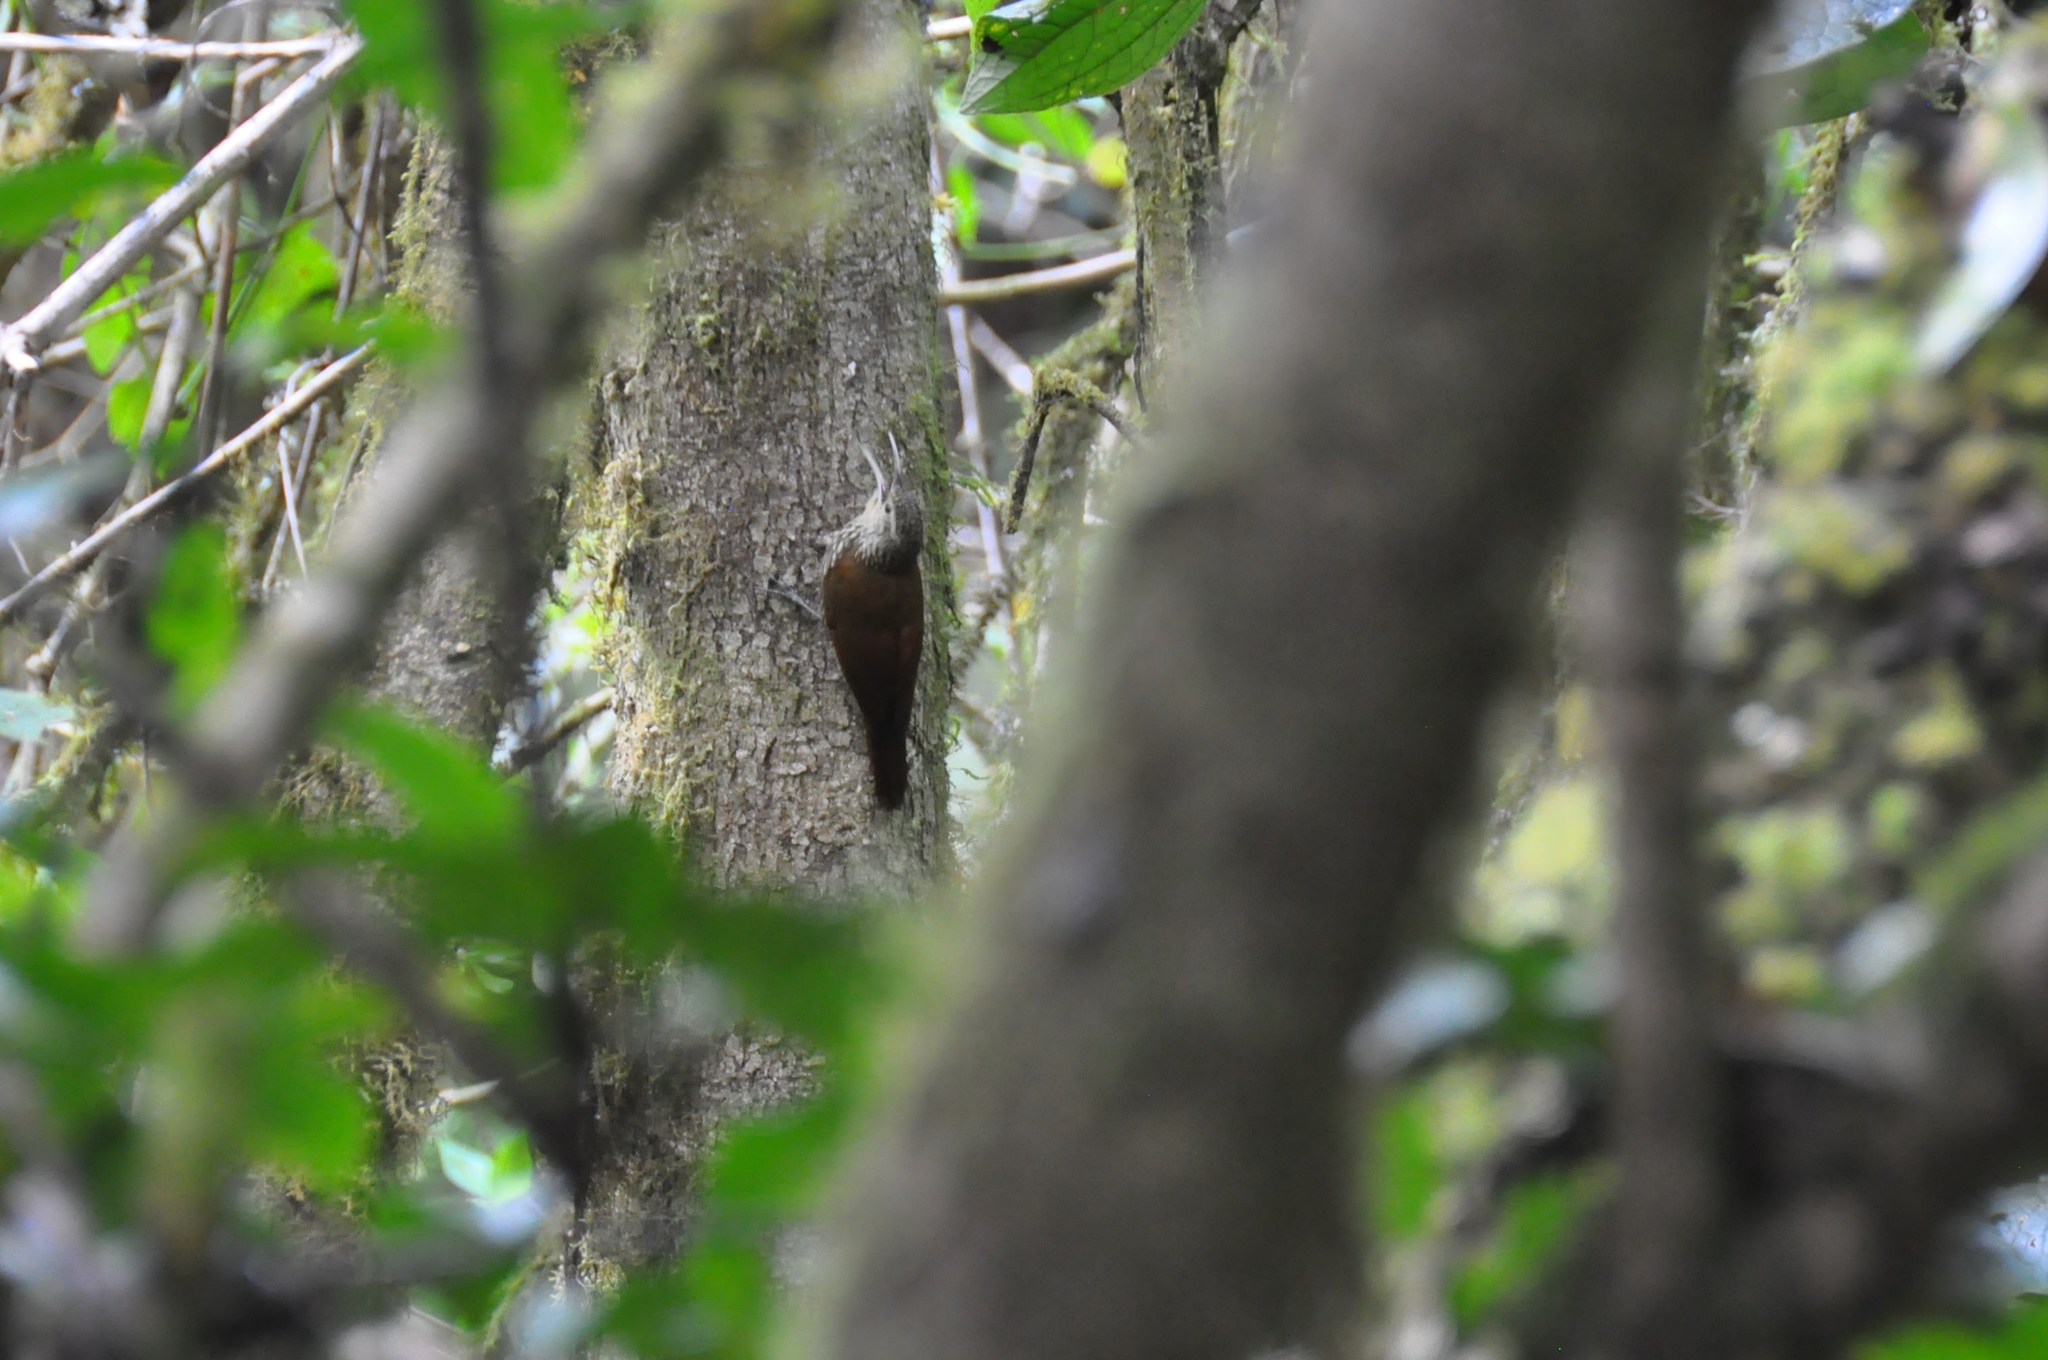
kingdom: Animalia
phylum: Chordata
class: Aves
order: Passeriformes
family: Furnariidae
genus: Lepidocolaptes
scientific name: Lepidocolaptes affinis
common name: Spot-crowned woodcreeper
